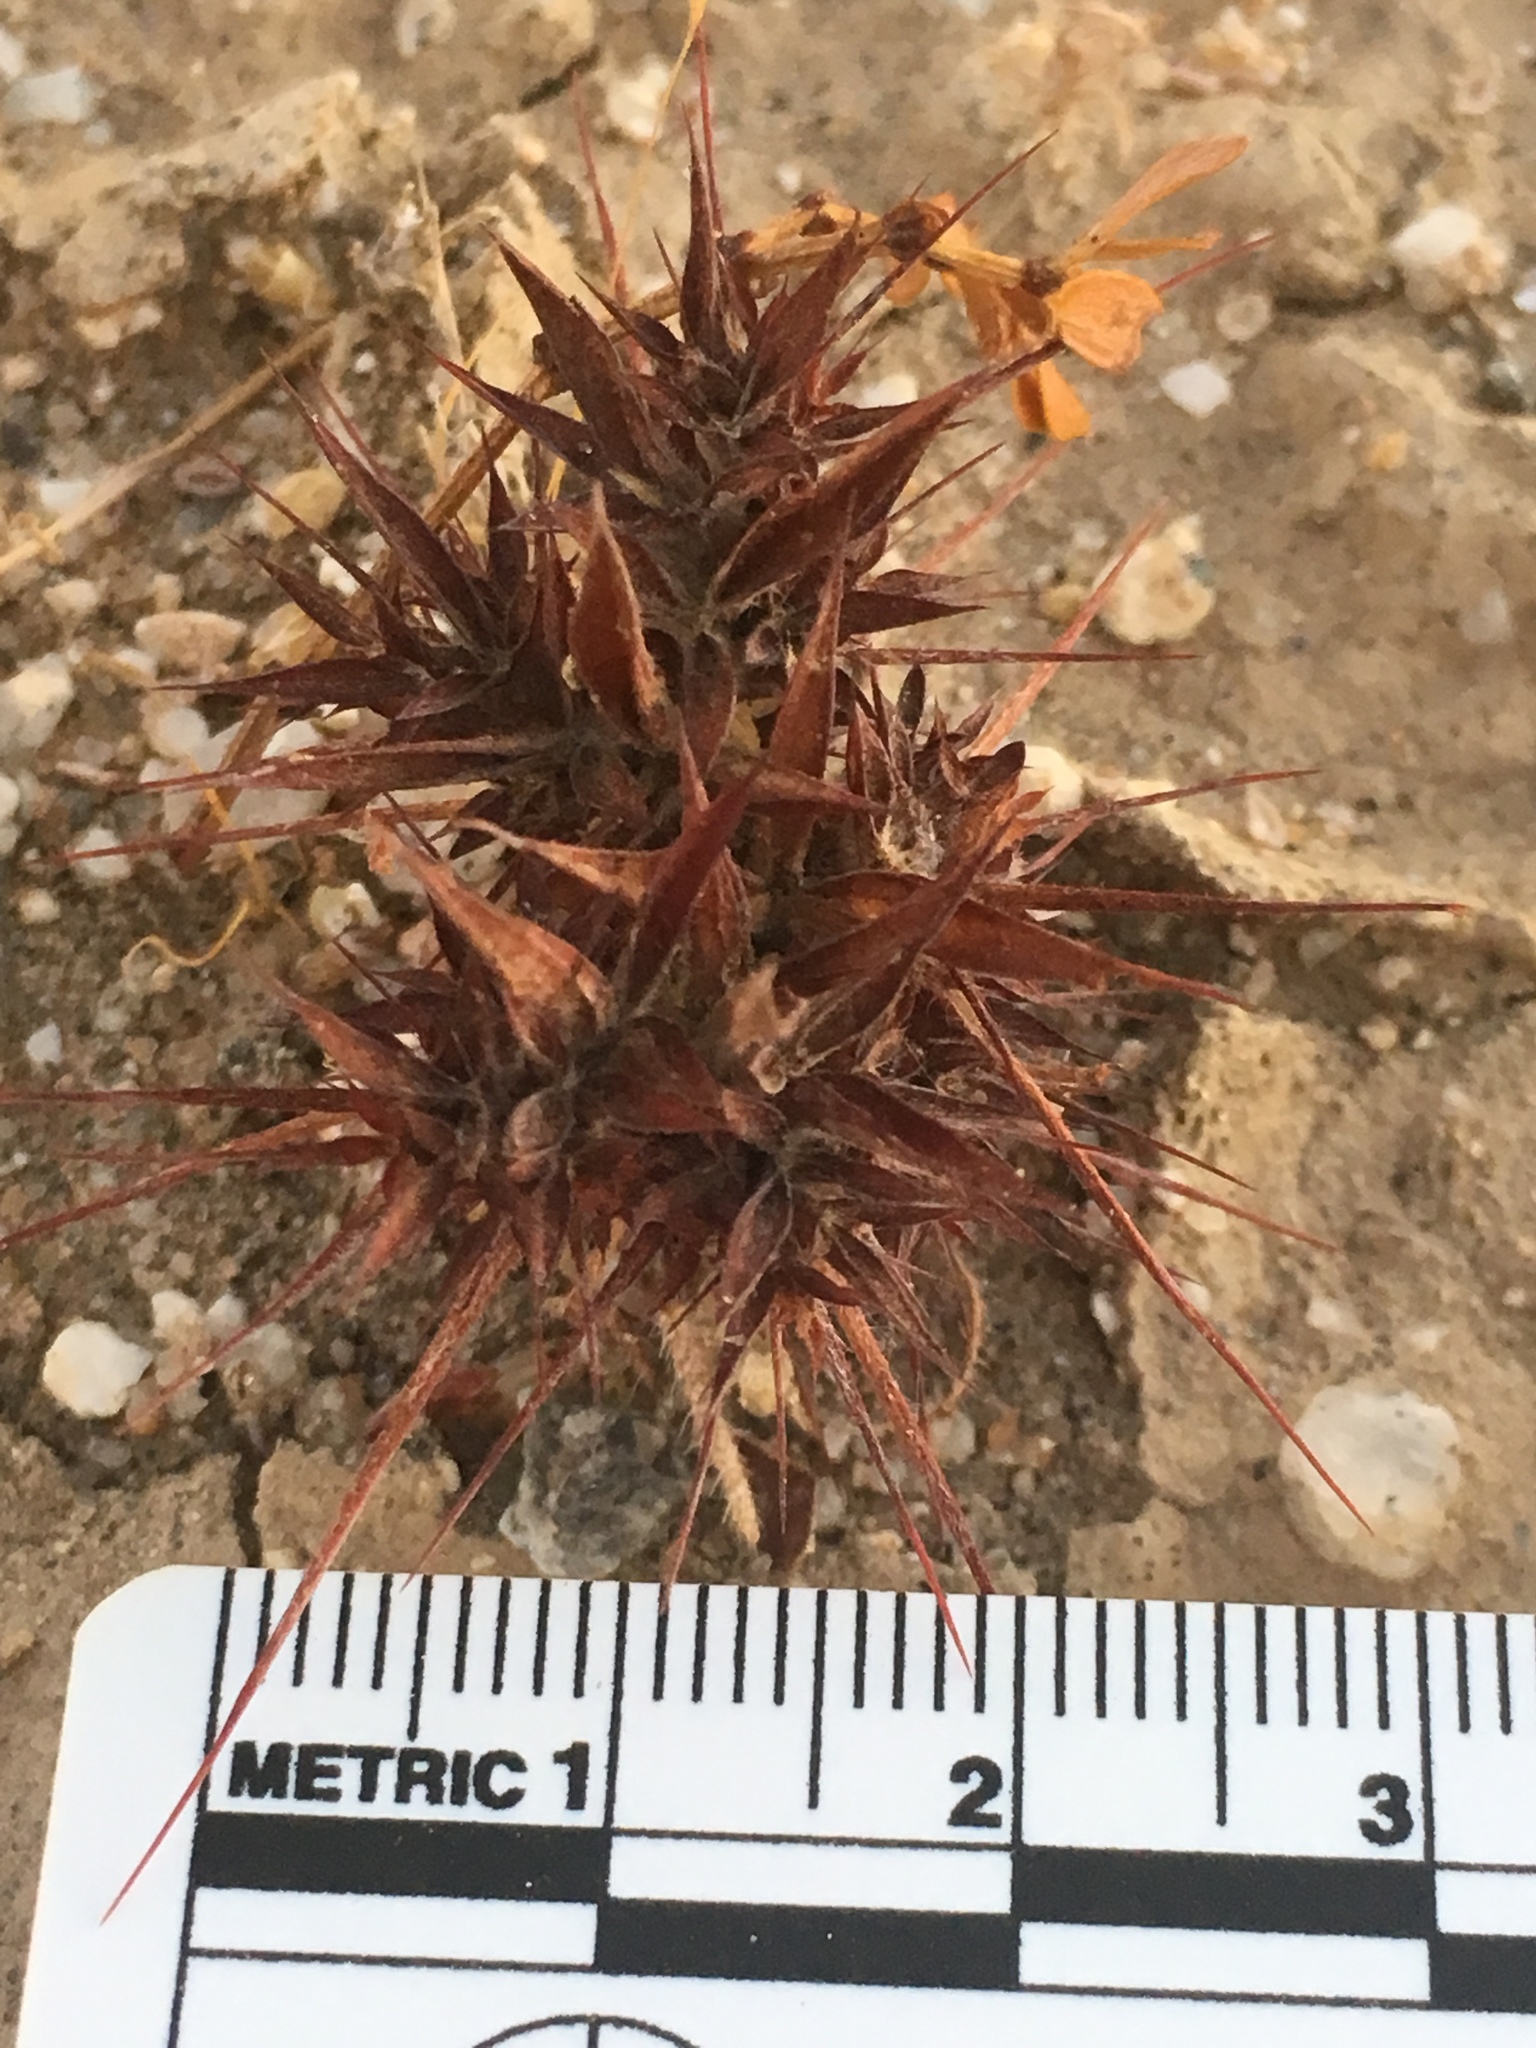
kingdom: Plantae
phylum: Tracheophyta
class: Magnoliopsida
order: Caryophyllales
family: Polygonaceae
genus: Chorizanthe
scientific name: Chorizanthe rigida
